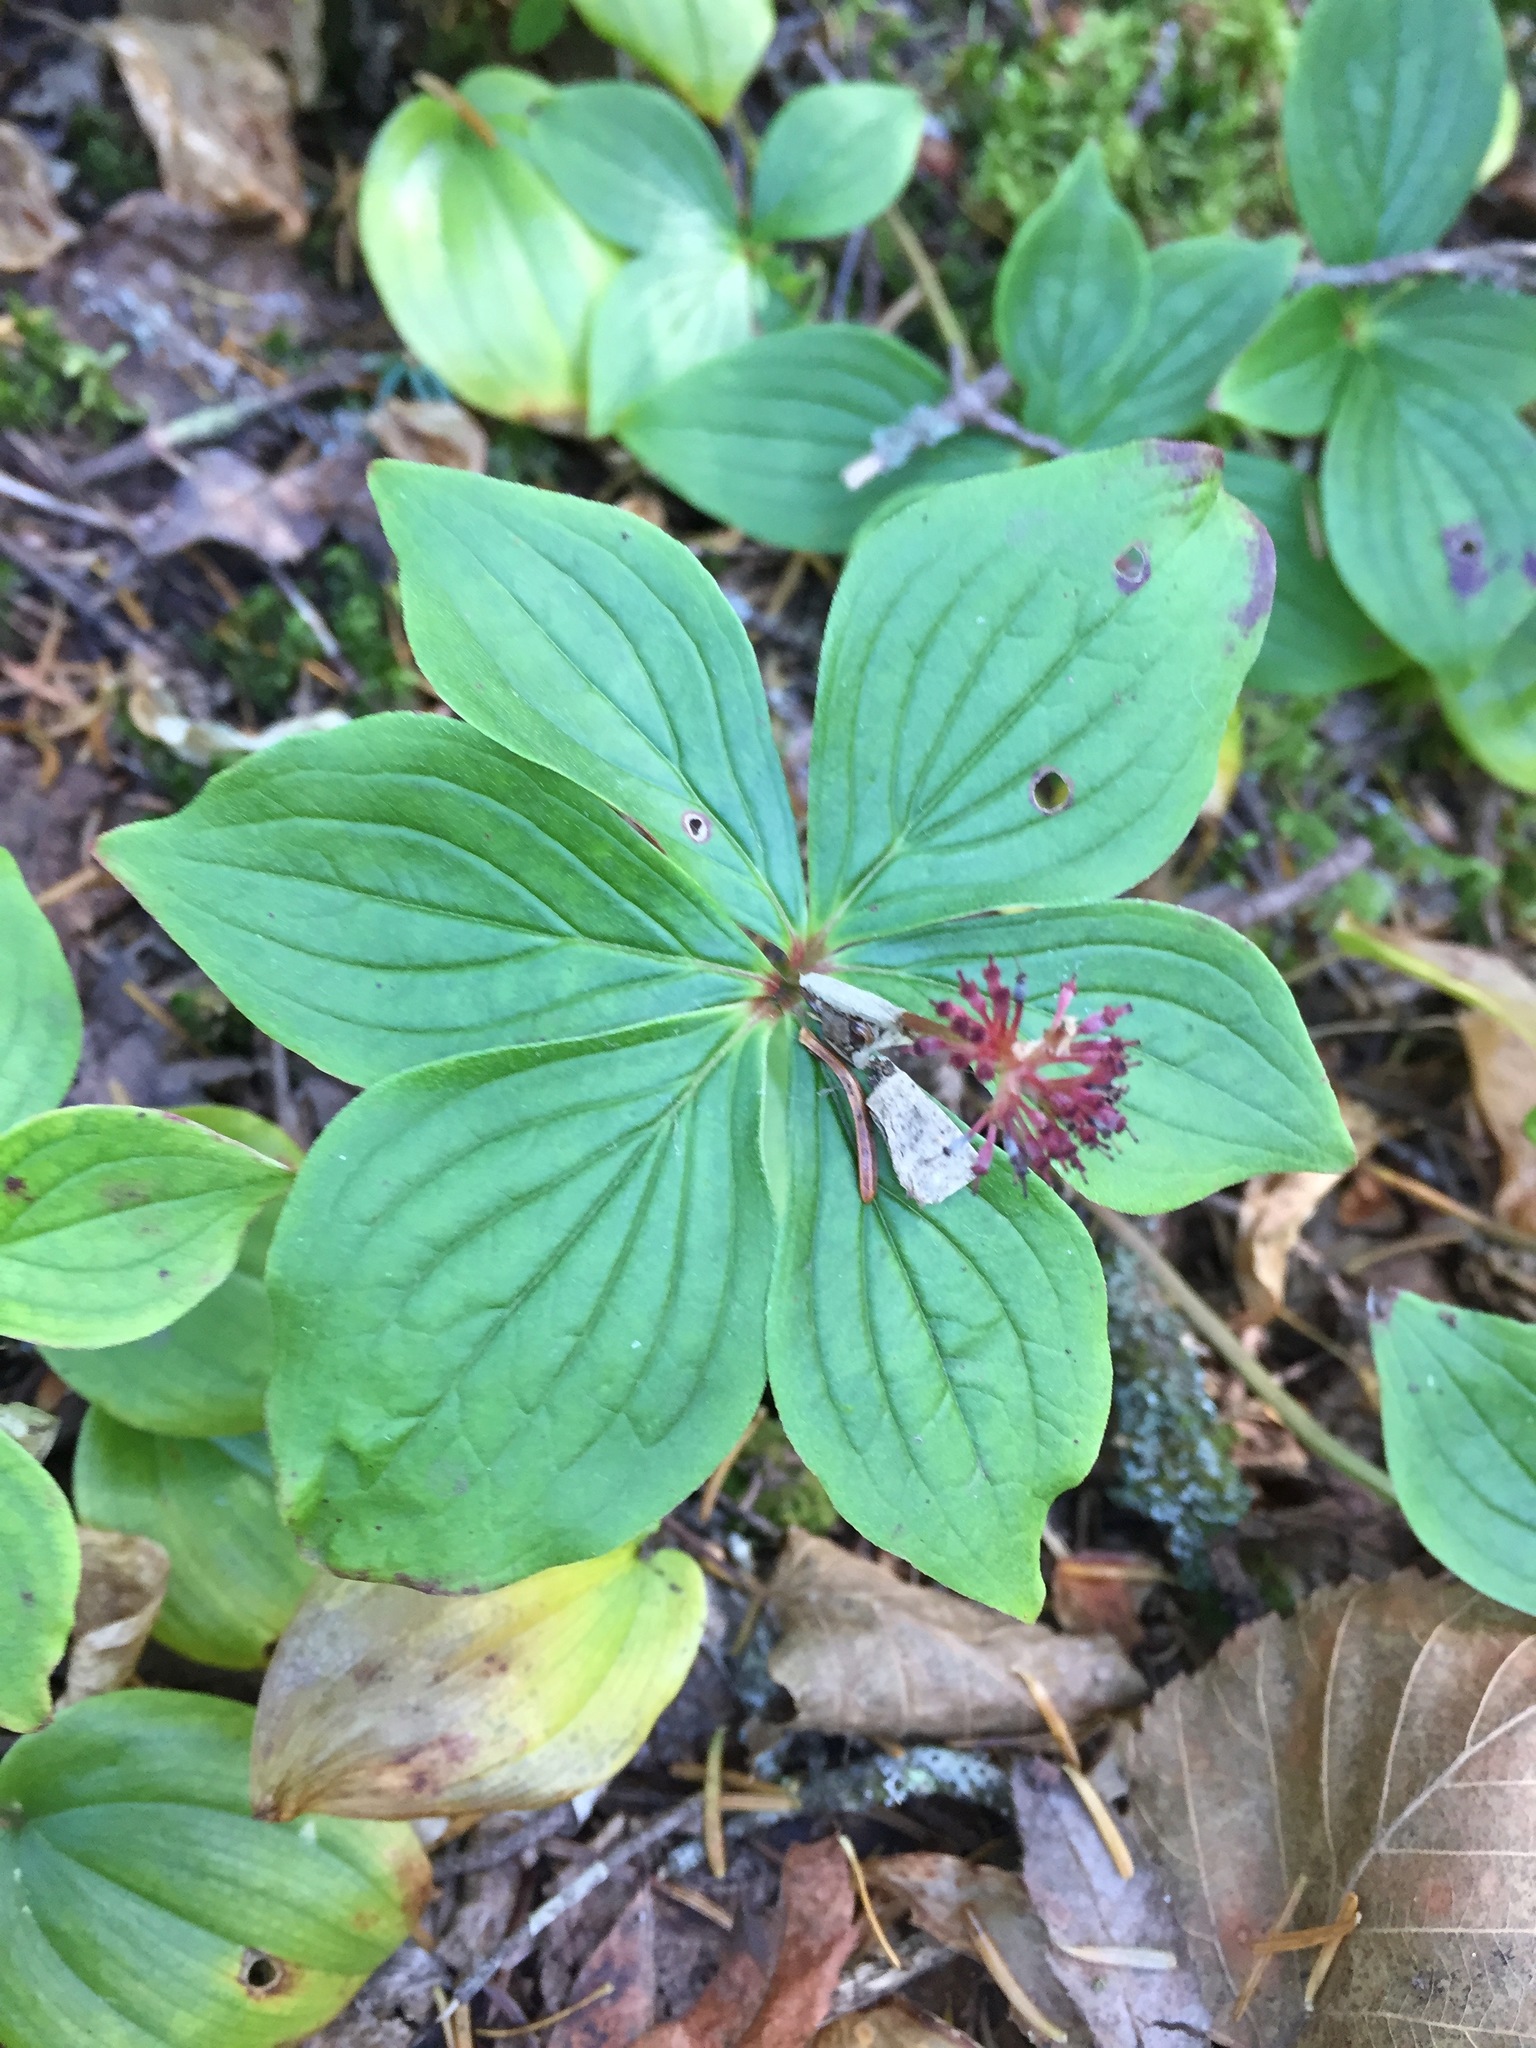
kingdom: Plantae
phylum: Tracheophyta
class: Magnoliopsida
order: Cornales
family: Cornaceae
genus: Cornus
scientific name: Cornus canadensis
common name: Creeping dogwood
